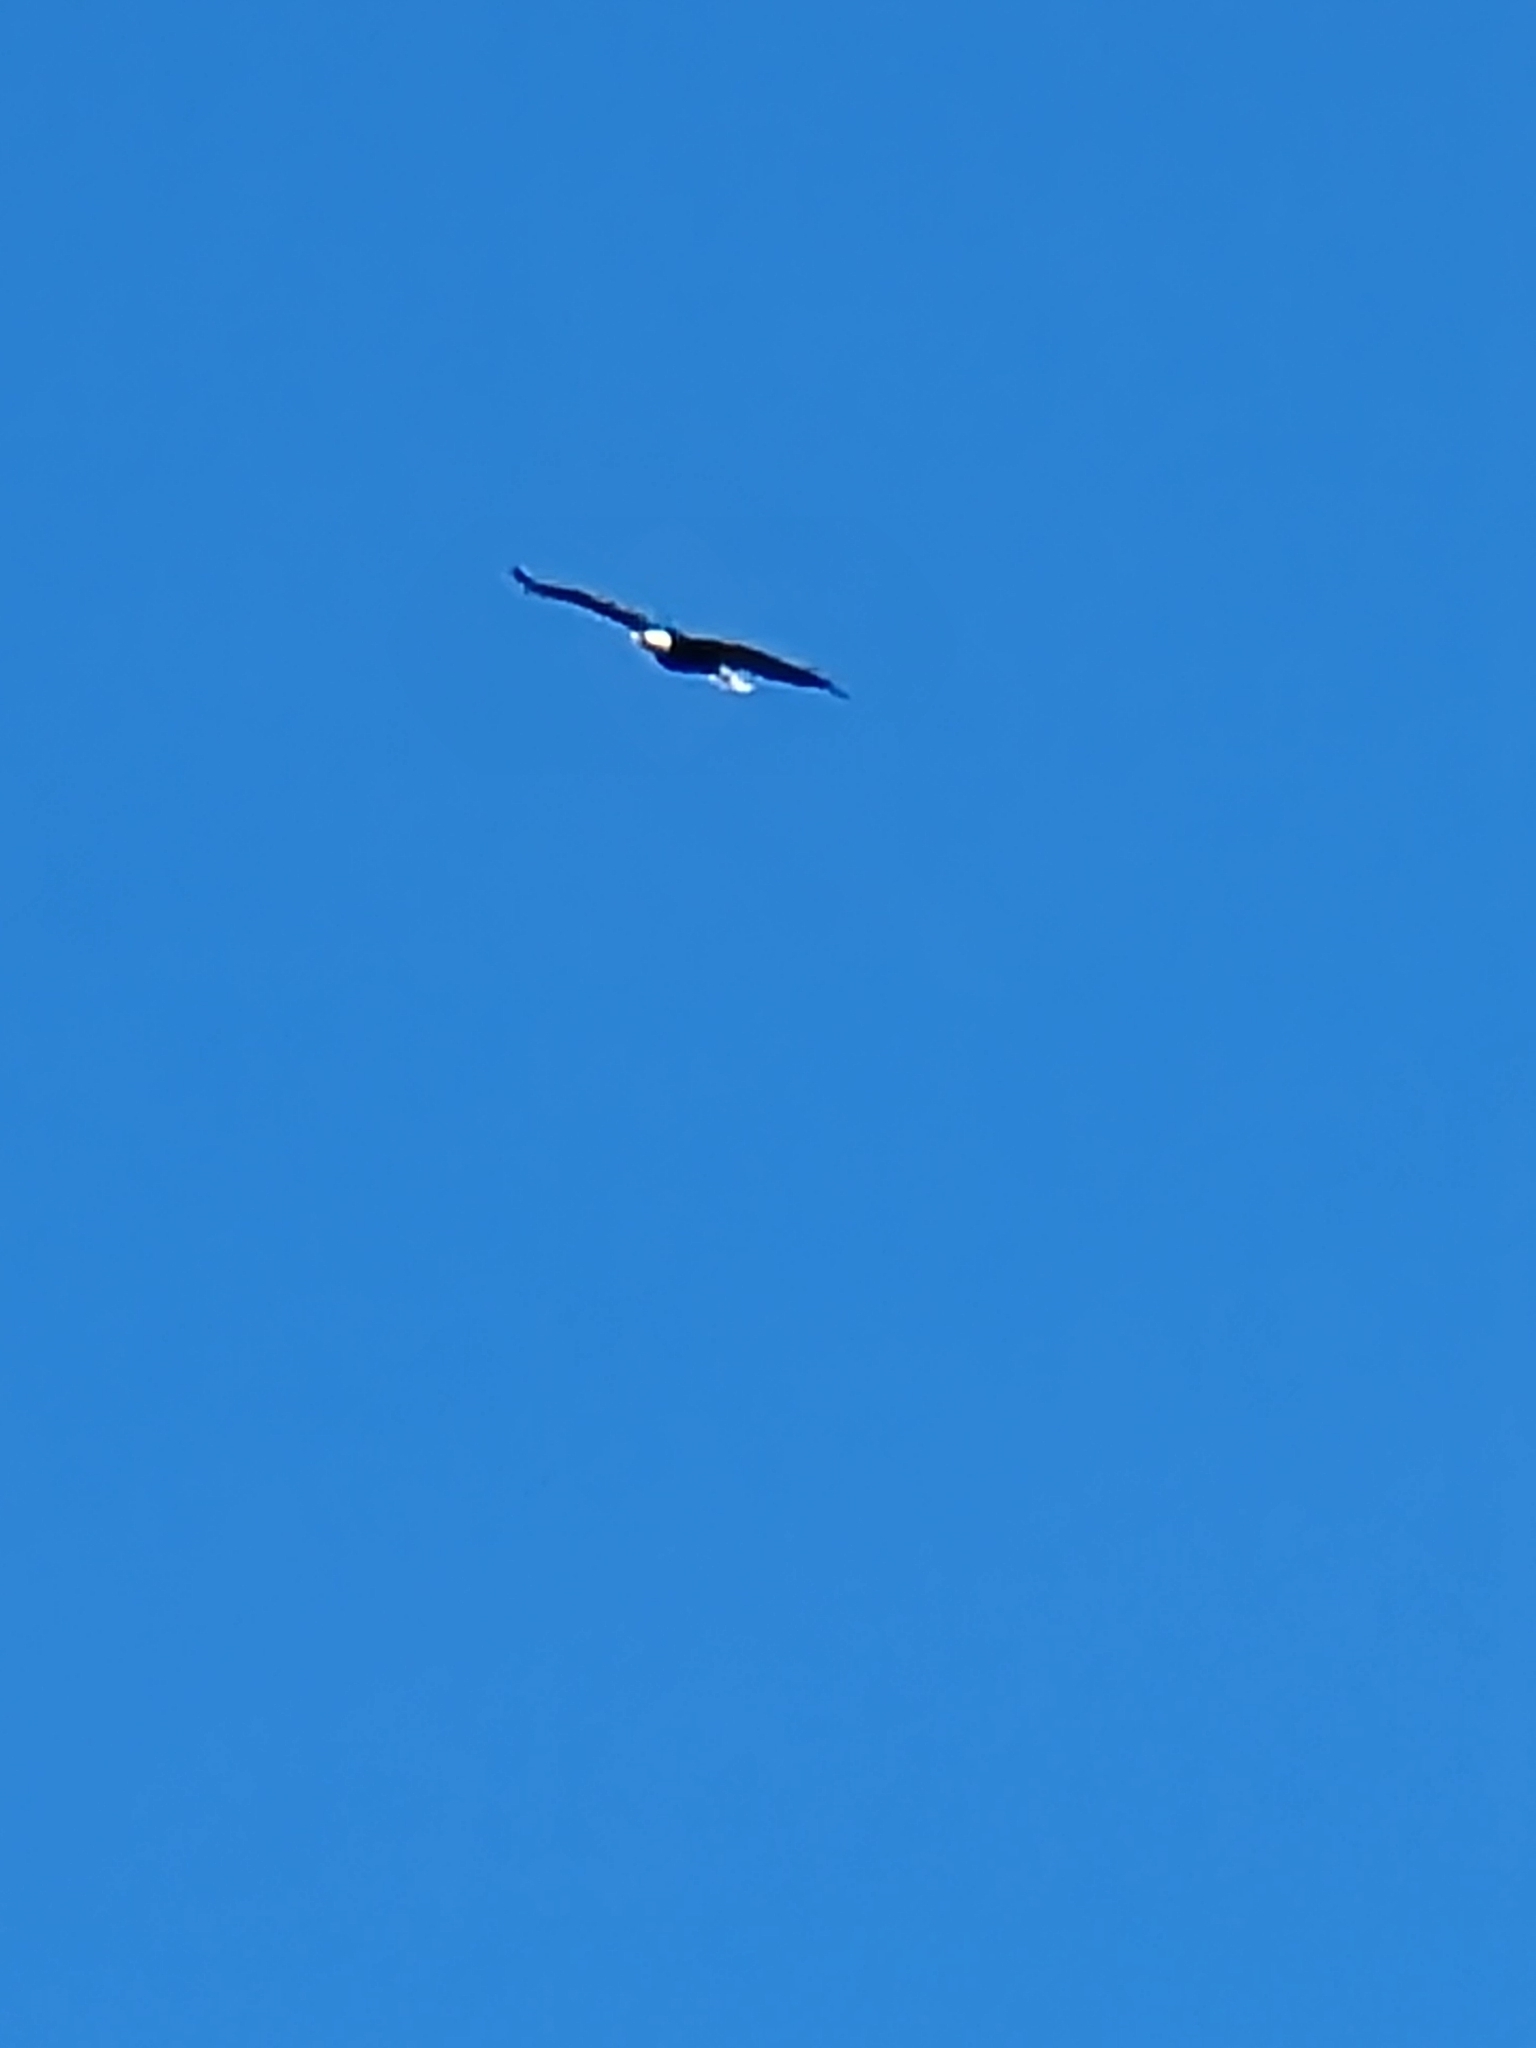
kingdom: Animalia
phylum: Chordata
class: Aves
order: Accipitriformes
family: Accipitridae
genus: Haliaeetus
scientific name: Haliaeetus leucocephalus
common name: Bald eagle
